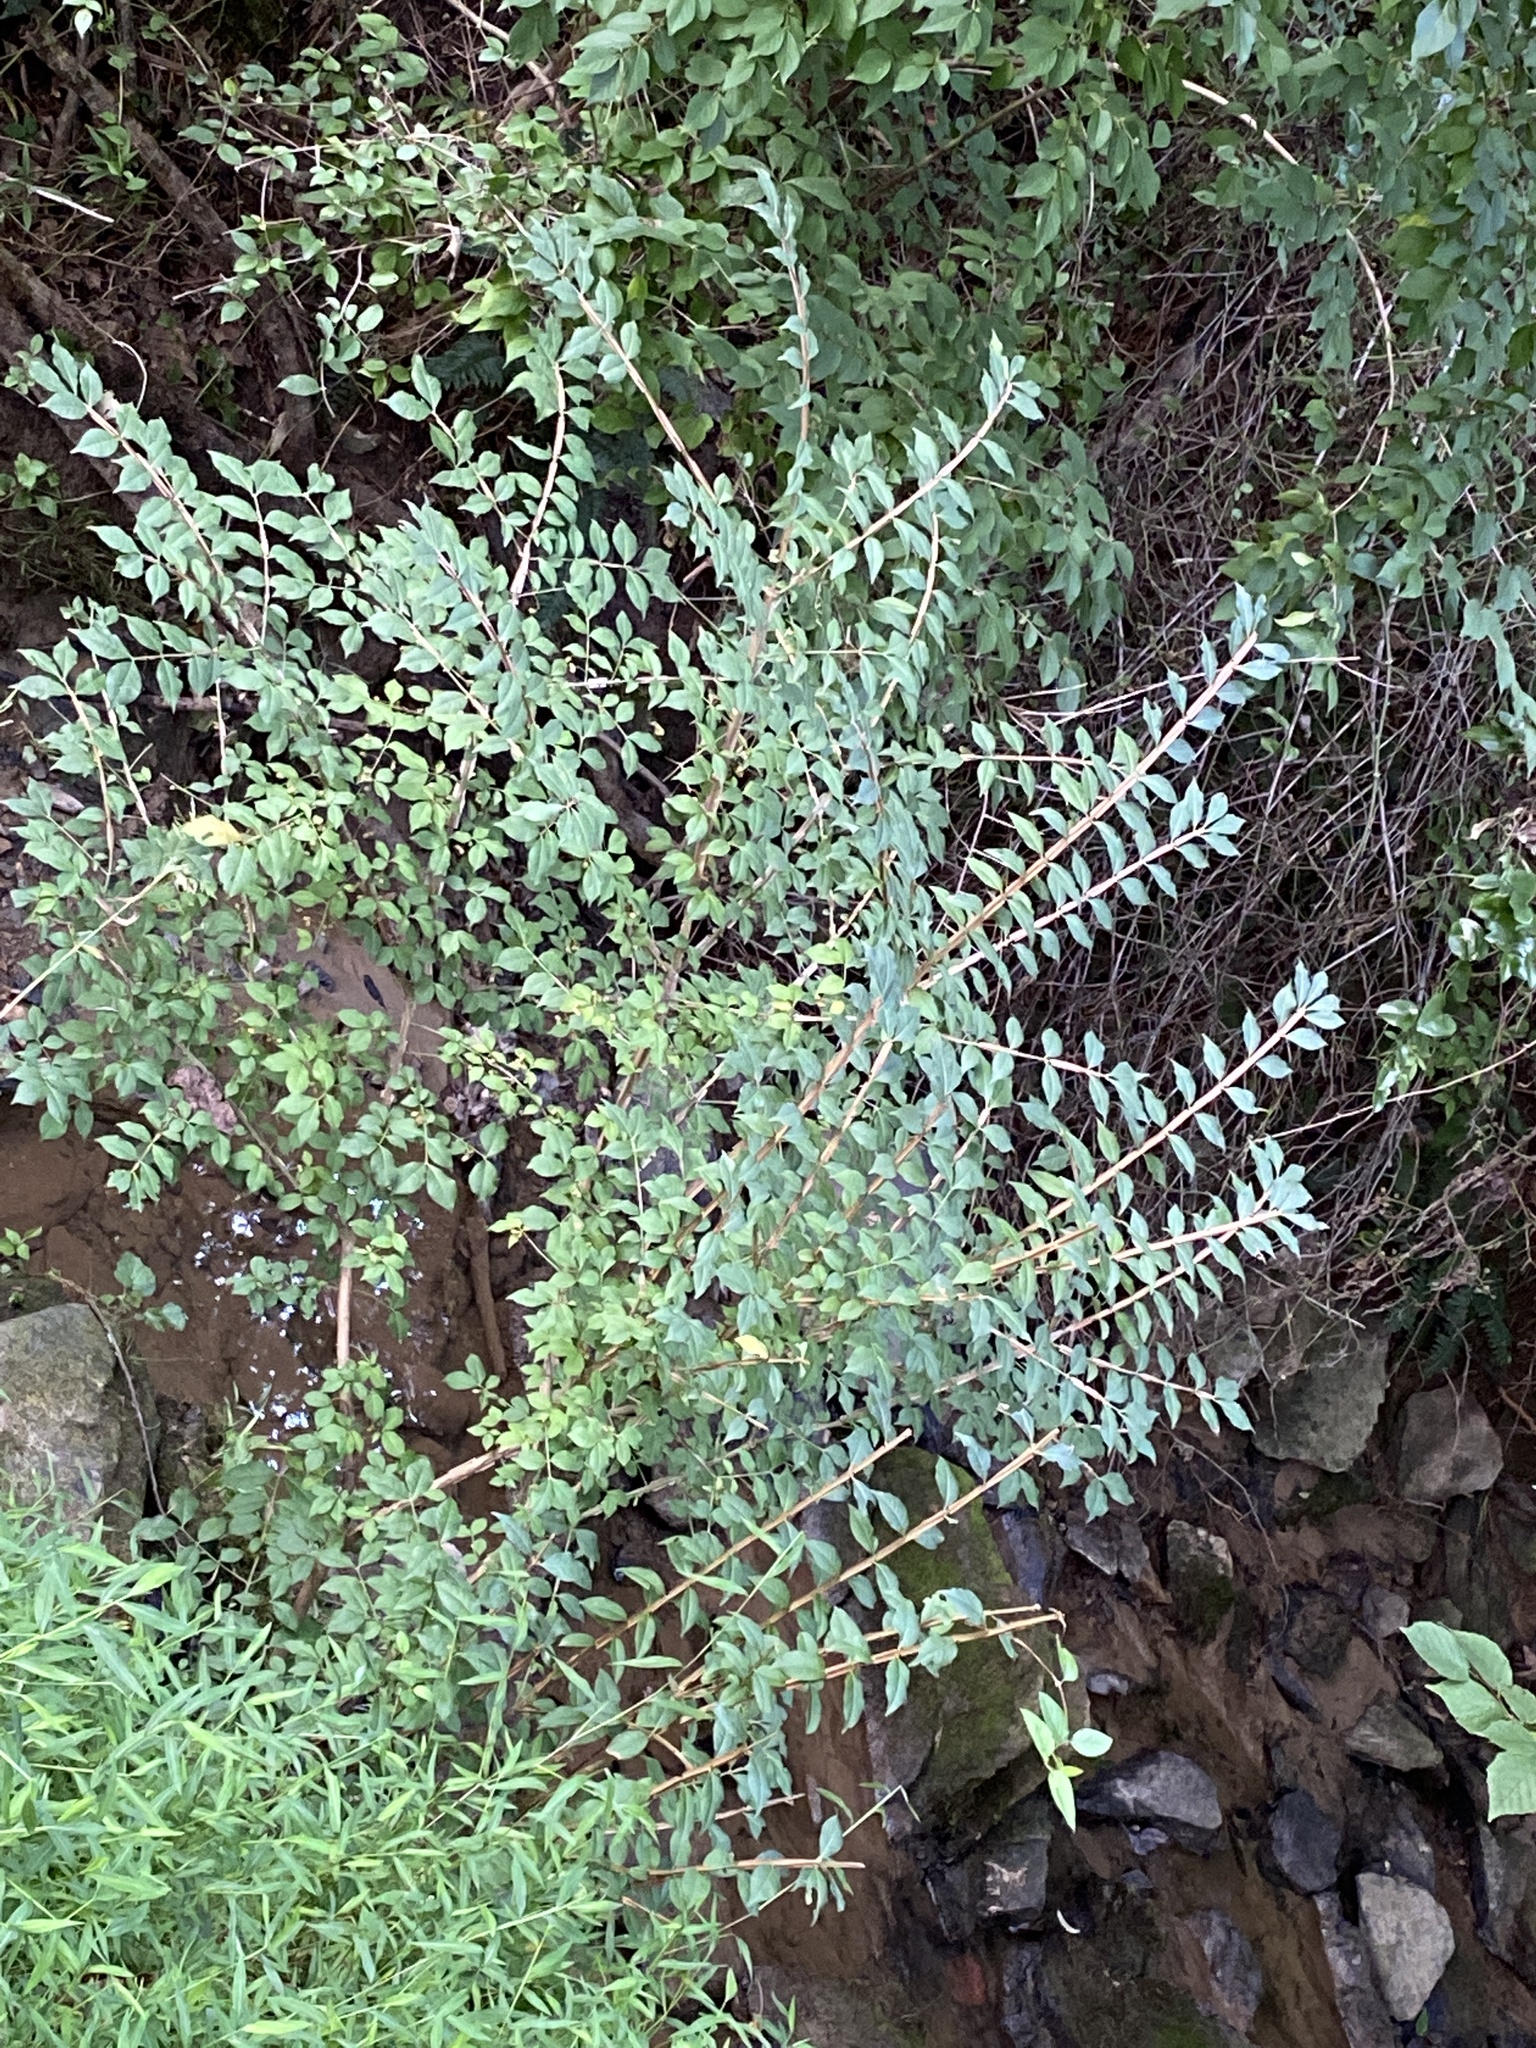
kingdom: Plantae
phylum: Tracheophyta
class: Magnoliopsida
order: Celastrales
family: Celastraceae
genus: Euonymus
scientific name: Euonymus alatus
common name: Winged euonymus
